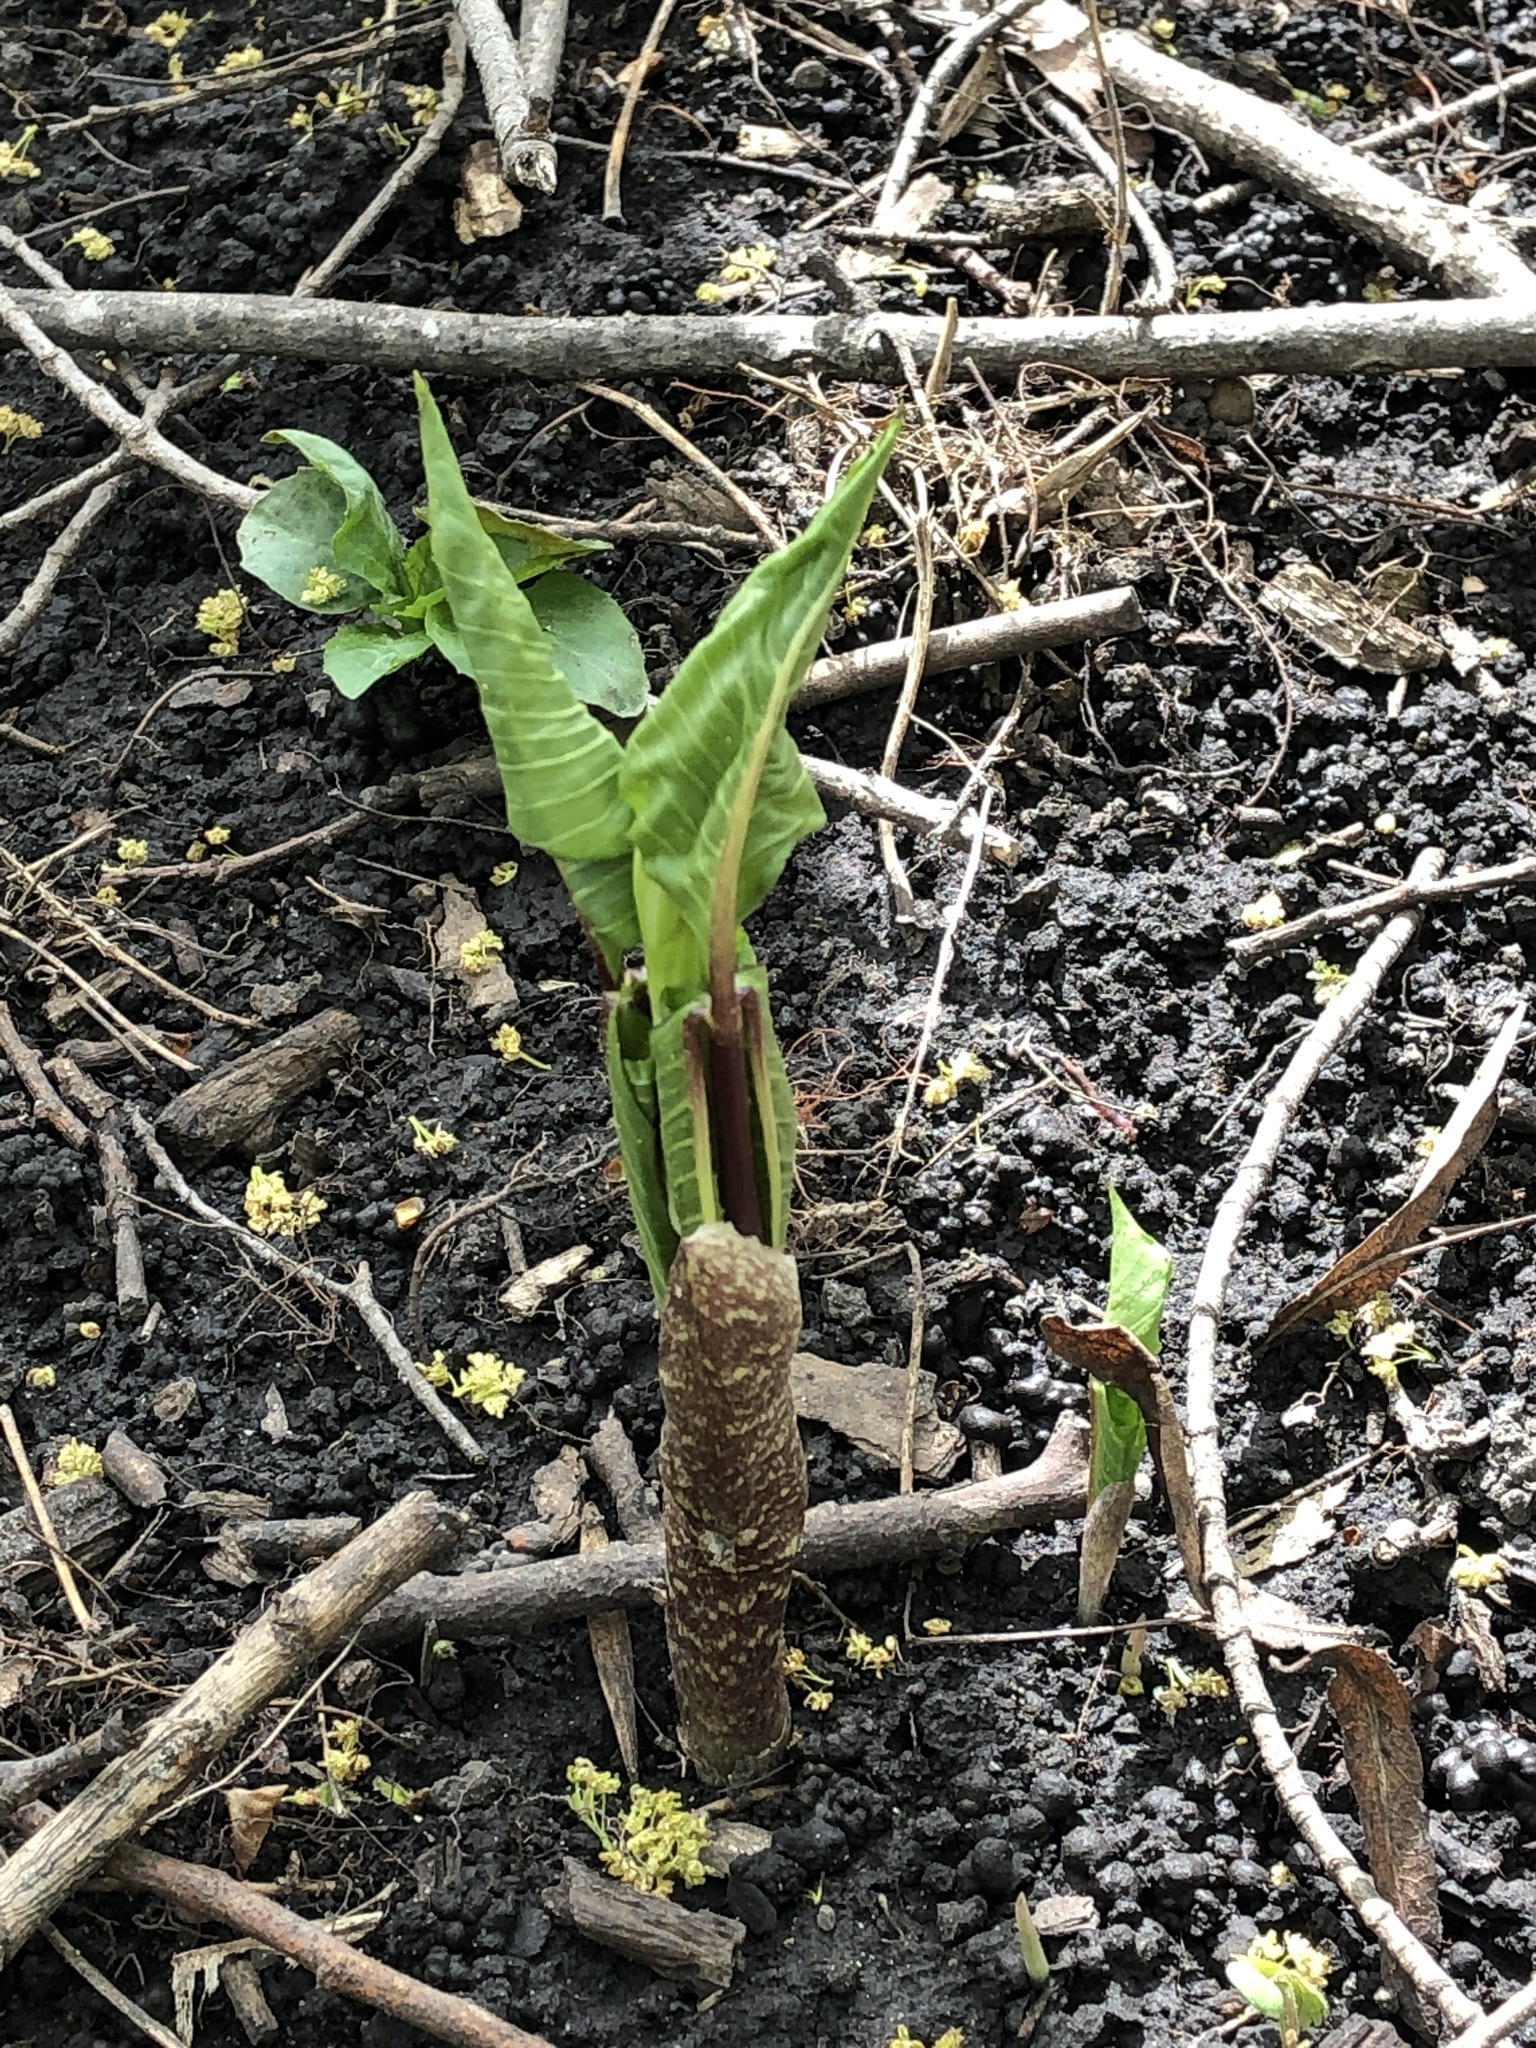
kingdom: Plantae
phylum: Tracheophyta
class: Liliopsida
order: Alismatales
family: Araceae
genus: Arisaema
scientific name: Arisaema triphyllum
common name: Jack-in-the-pulpit
